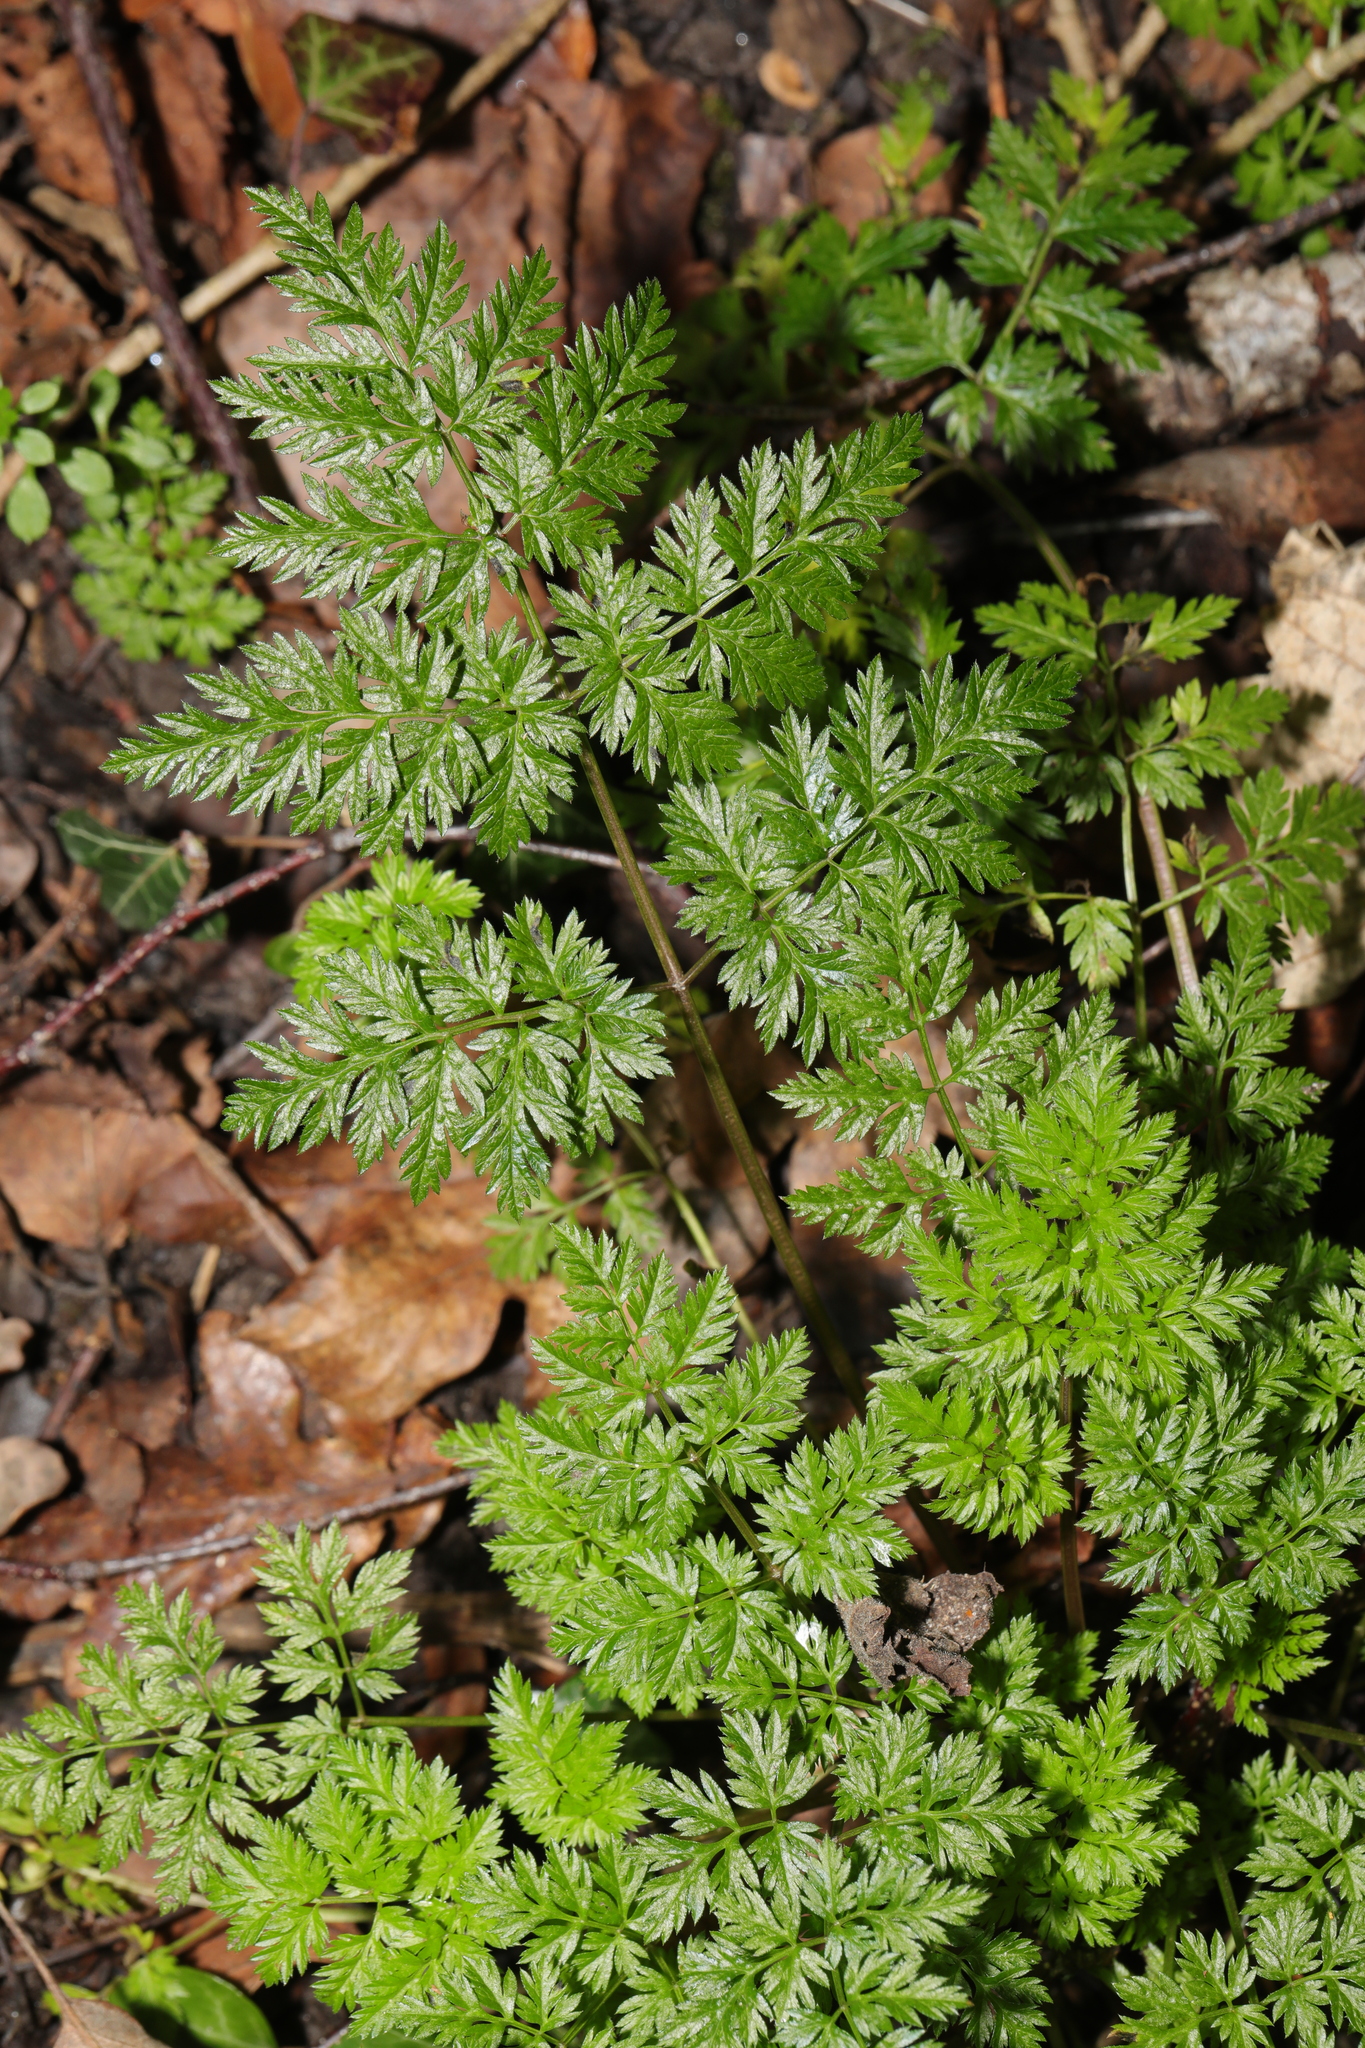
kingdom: Plantae
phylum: Tracheophyta
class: Magnoliopsida
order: Apiales
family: Apiaceae
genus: Anthriscus
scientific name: Anthriscus sylvestris
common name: Cow parsley
